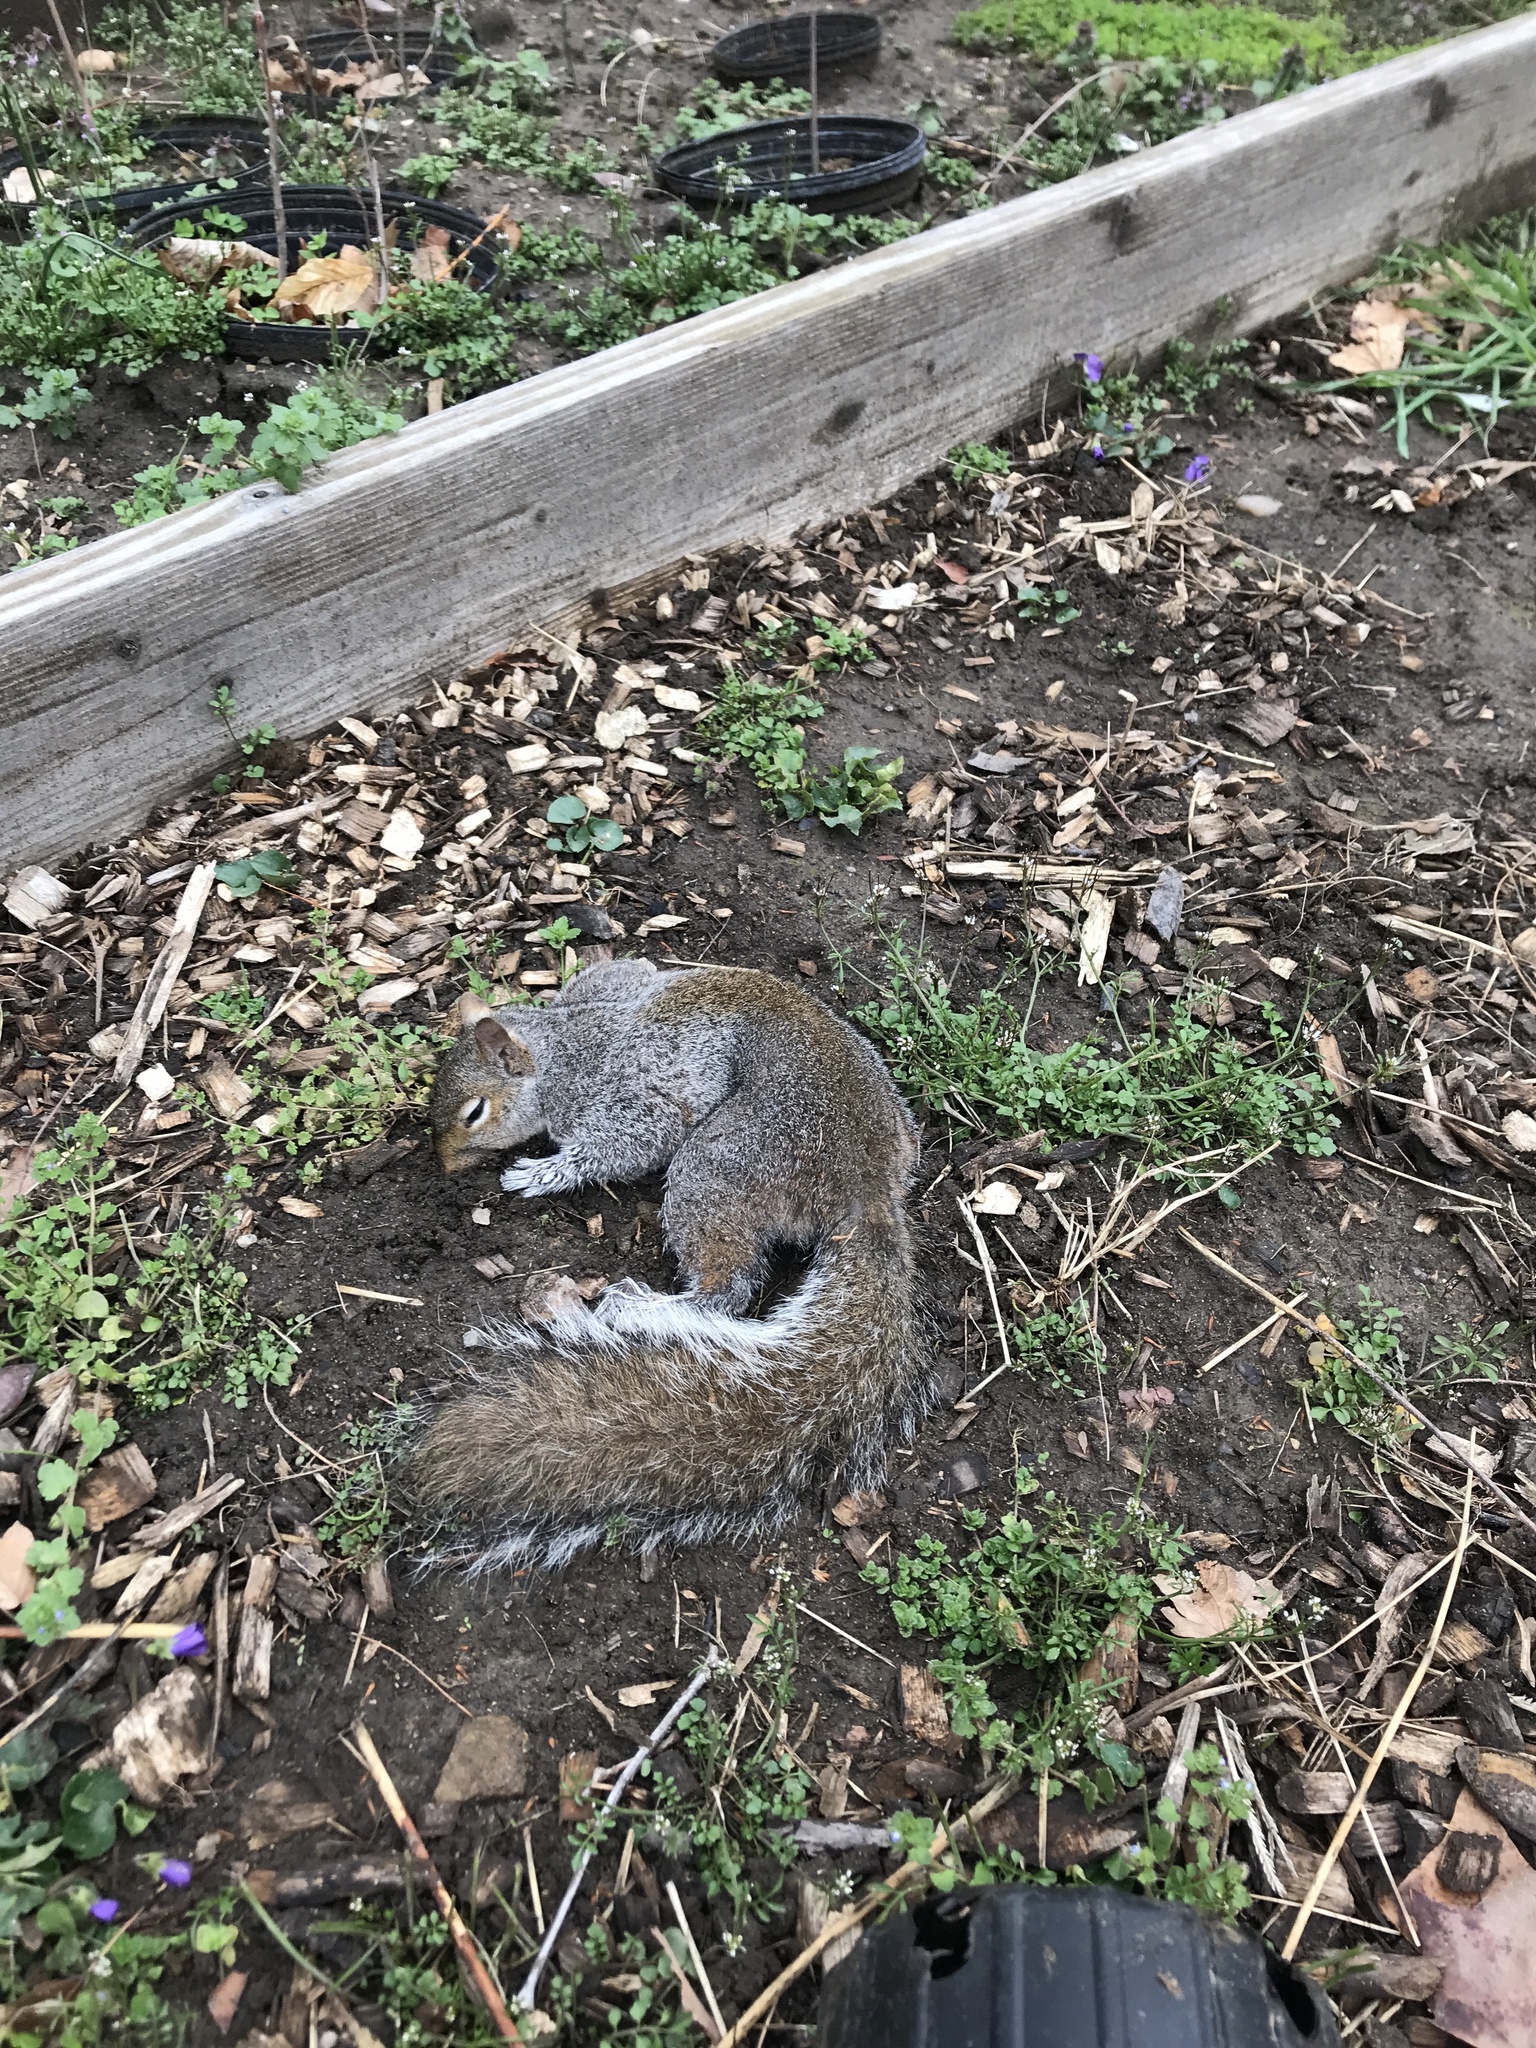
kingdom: Animalia
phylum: Chordata
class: Mammalia
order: Rodentia
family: Sciuridae
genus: Sciurus
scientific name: Sciurus carolinensis
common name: Eastern gray squirrel
